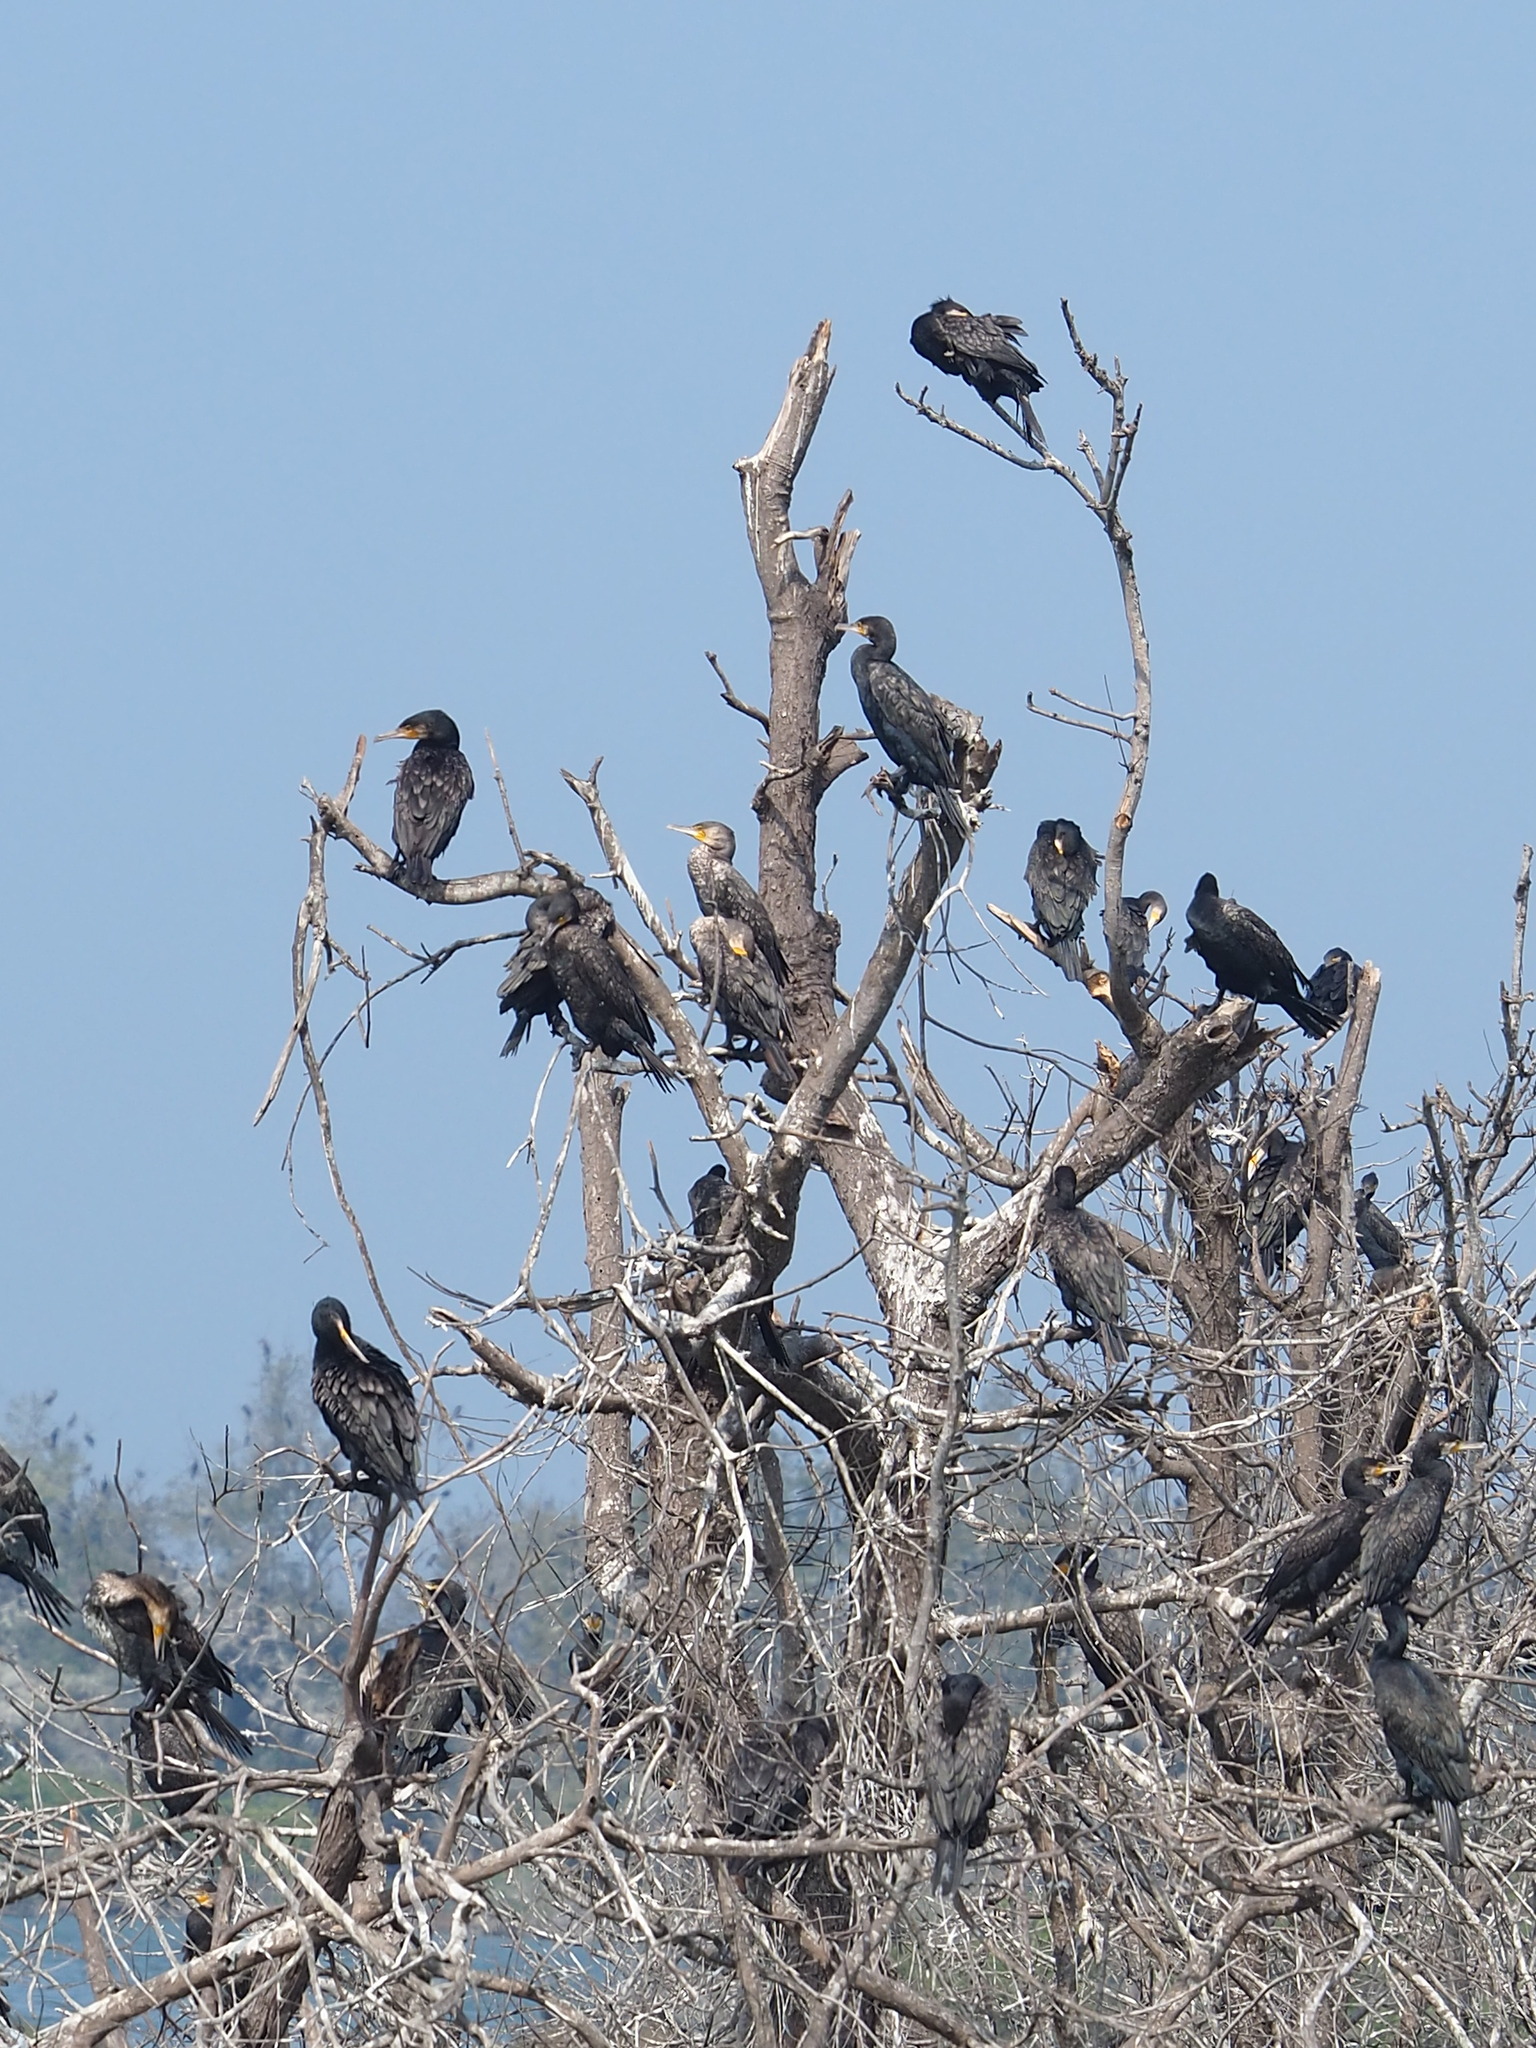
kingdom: Animalia
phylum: Chordata
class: Aves
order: Suliformes
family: Phalacrocoracidae
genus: Phalacrocorax
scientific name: Phalacrocorax carbo
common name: Great cormorant
